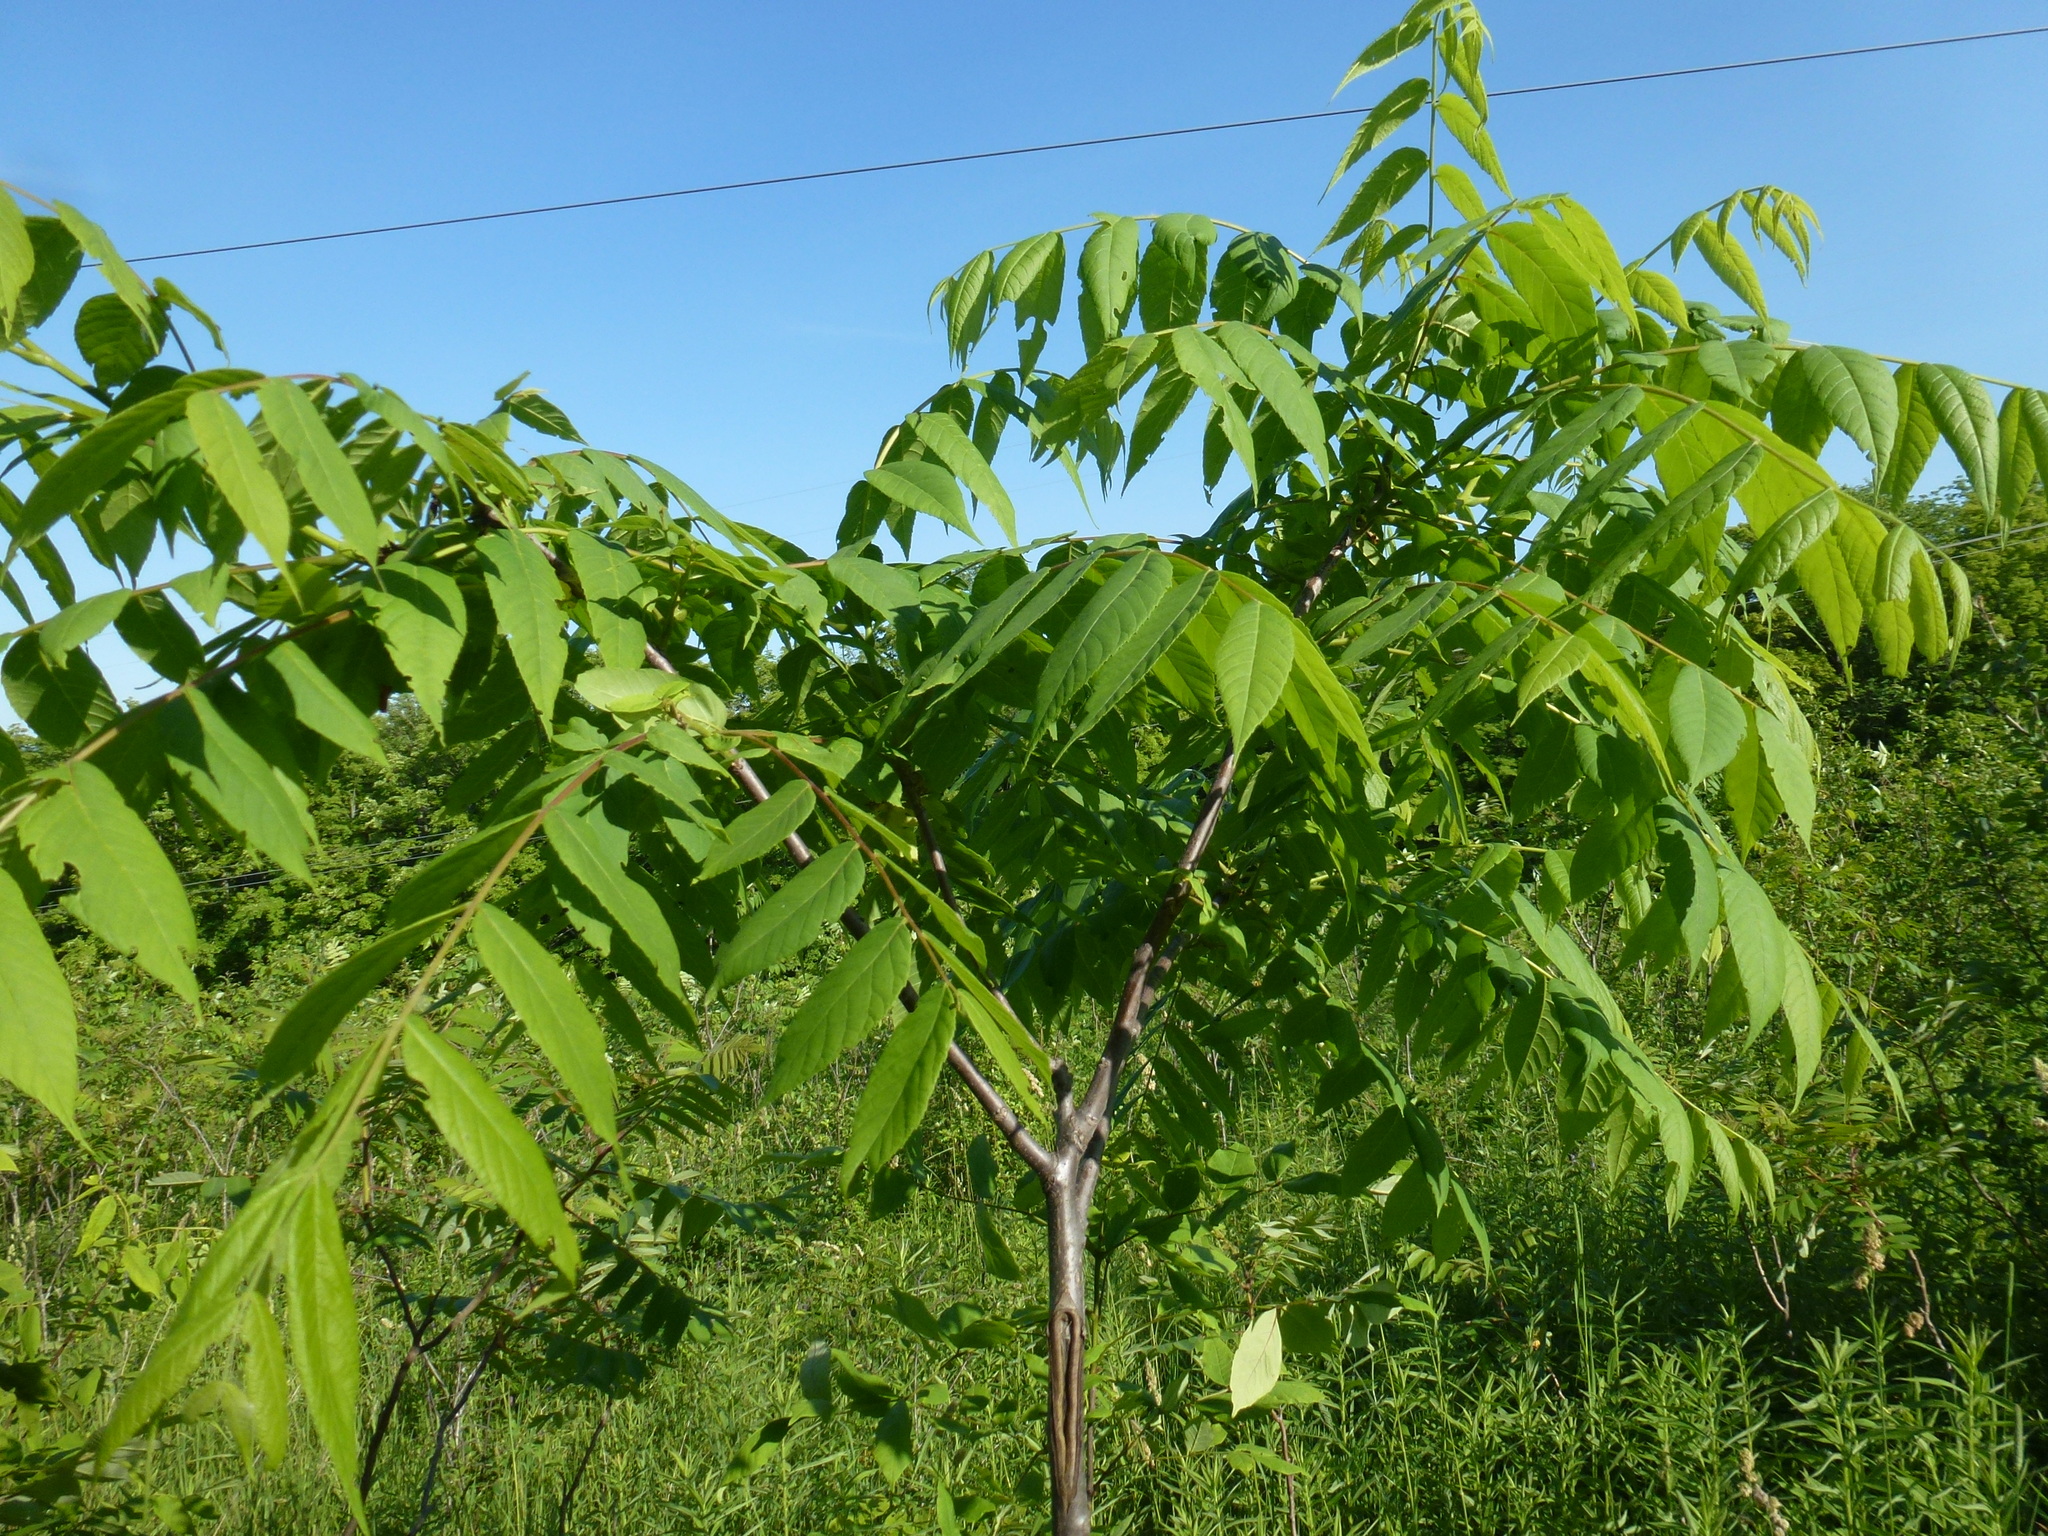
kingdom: Plantae
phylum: Tracheophyta
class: Magnoliopsida
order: Fagales
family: Juglandaceae
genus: Juglans
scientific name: Juglans nigra
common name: Black walnut
